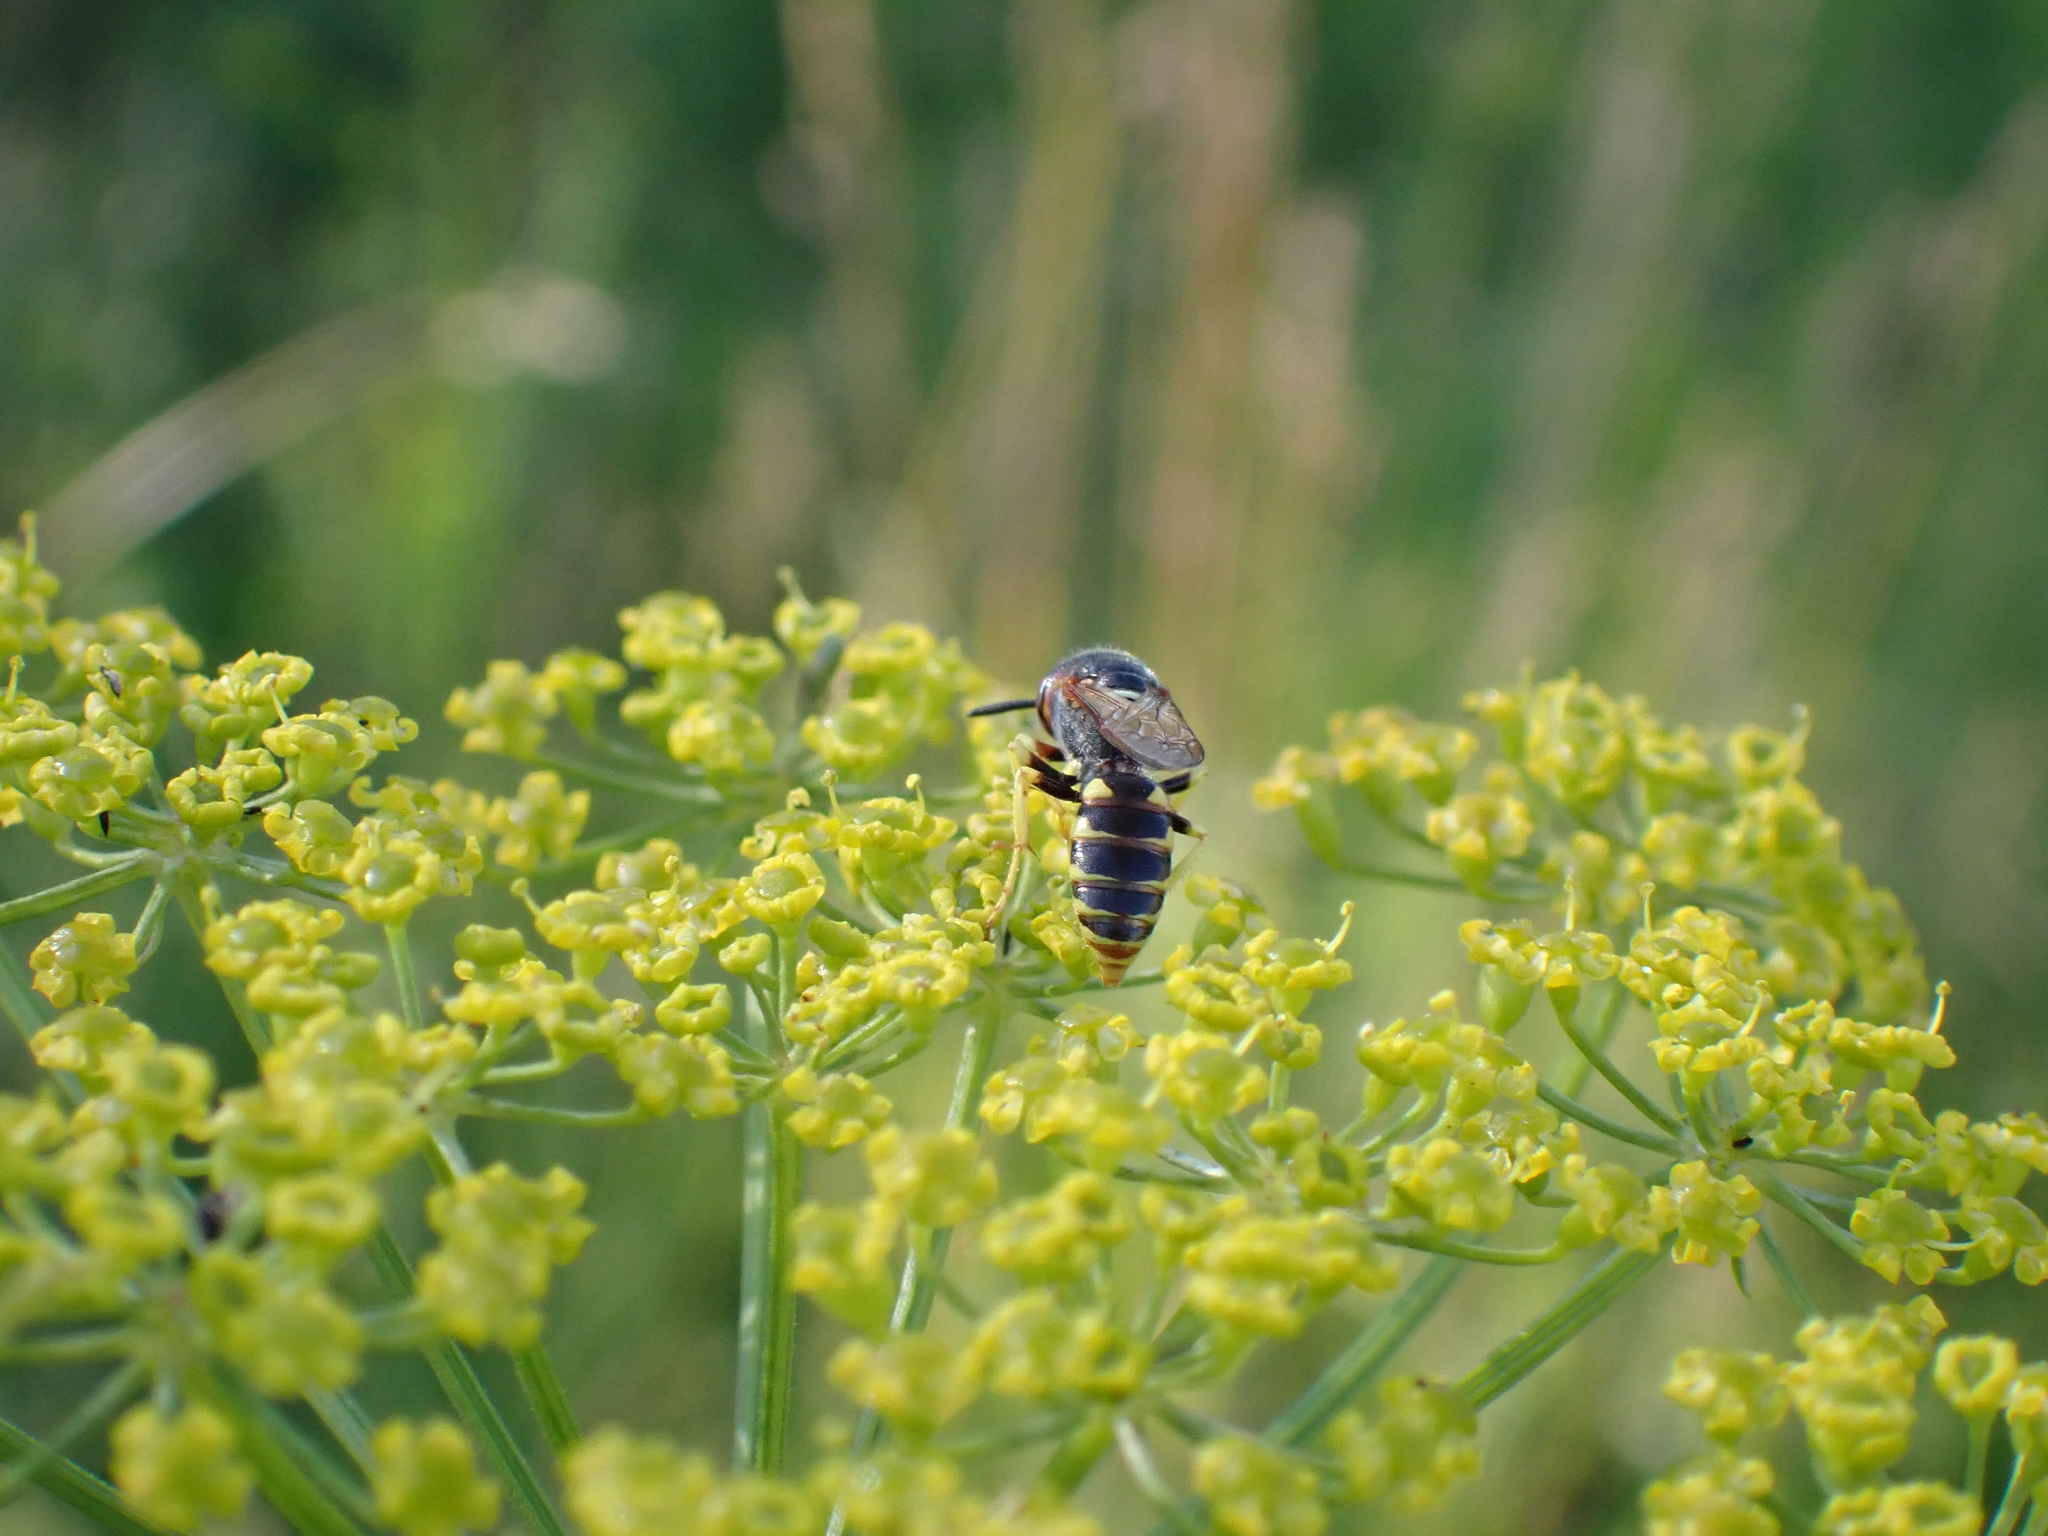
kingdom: Animalia
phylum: Arthropoda
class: Insecta
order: Hymenoptera
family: Crabronidae
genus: Philanthus
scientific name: Philanthus triangulum
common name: Bee wolf
